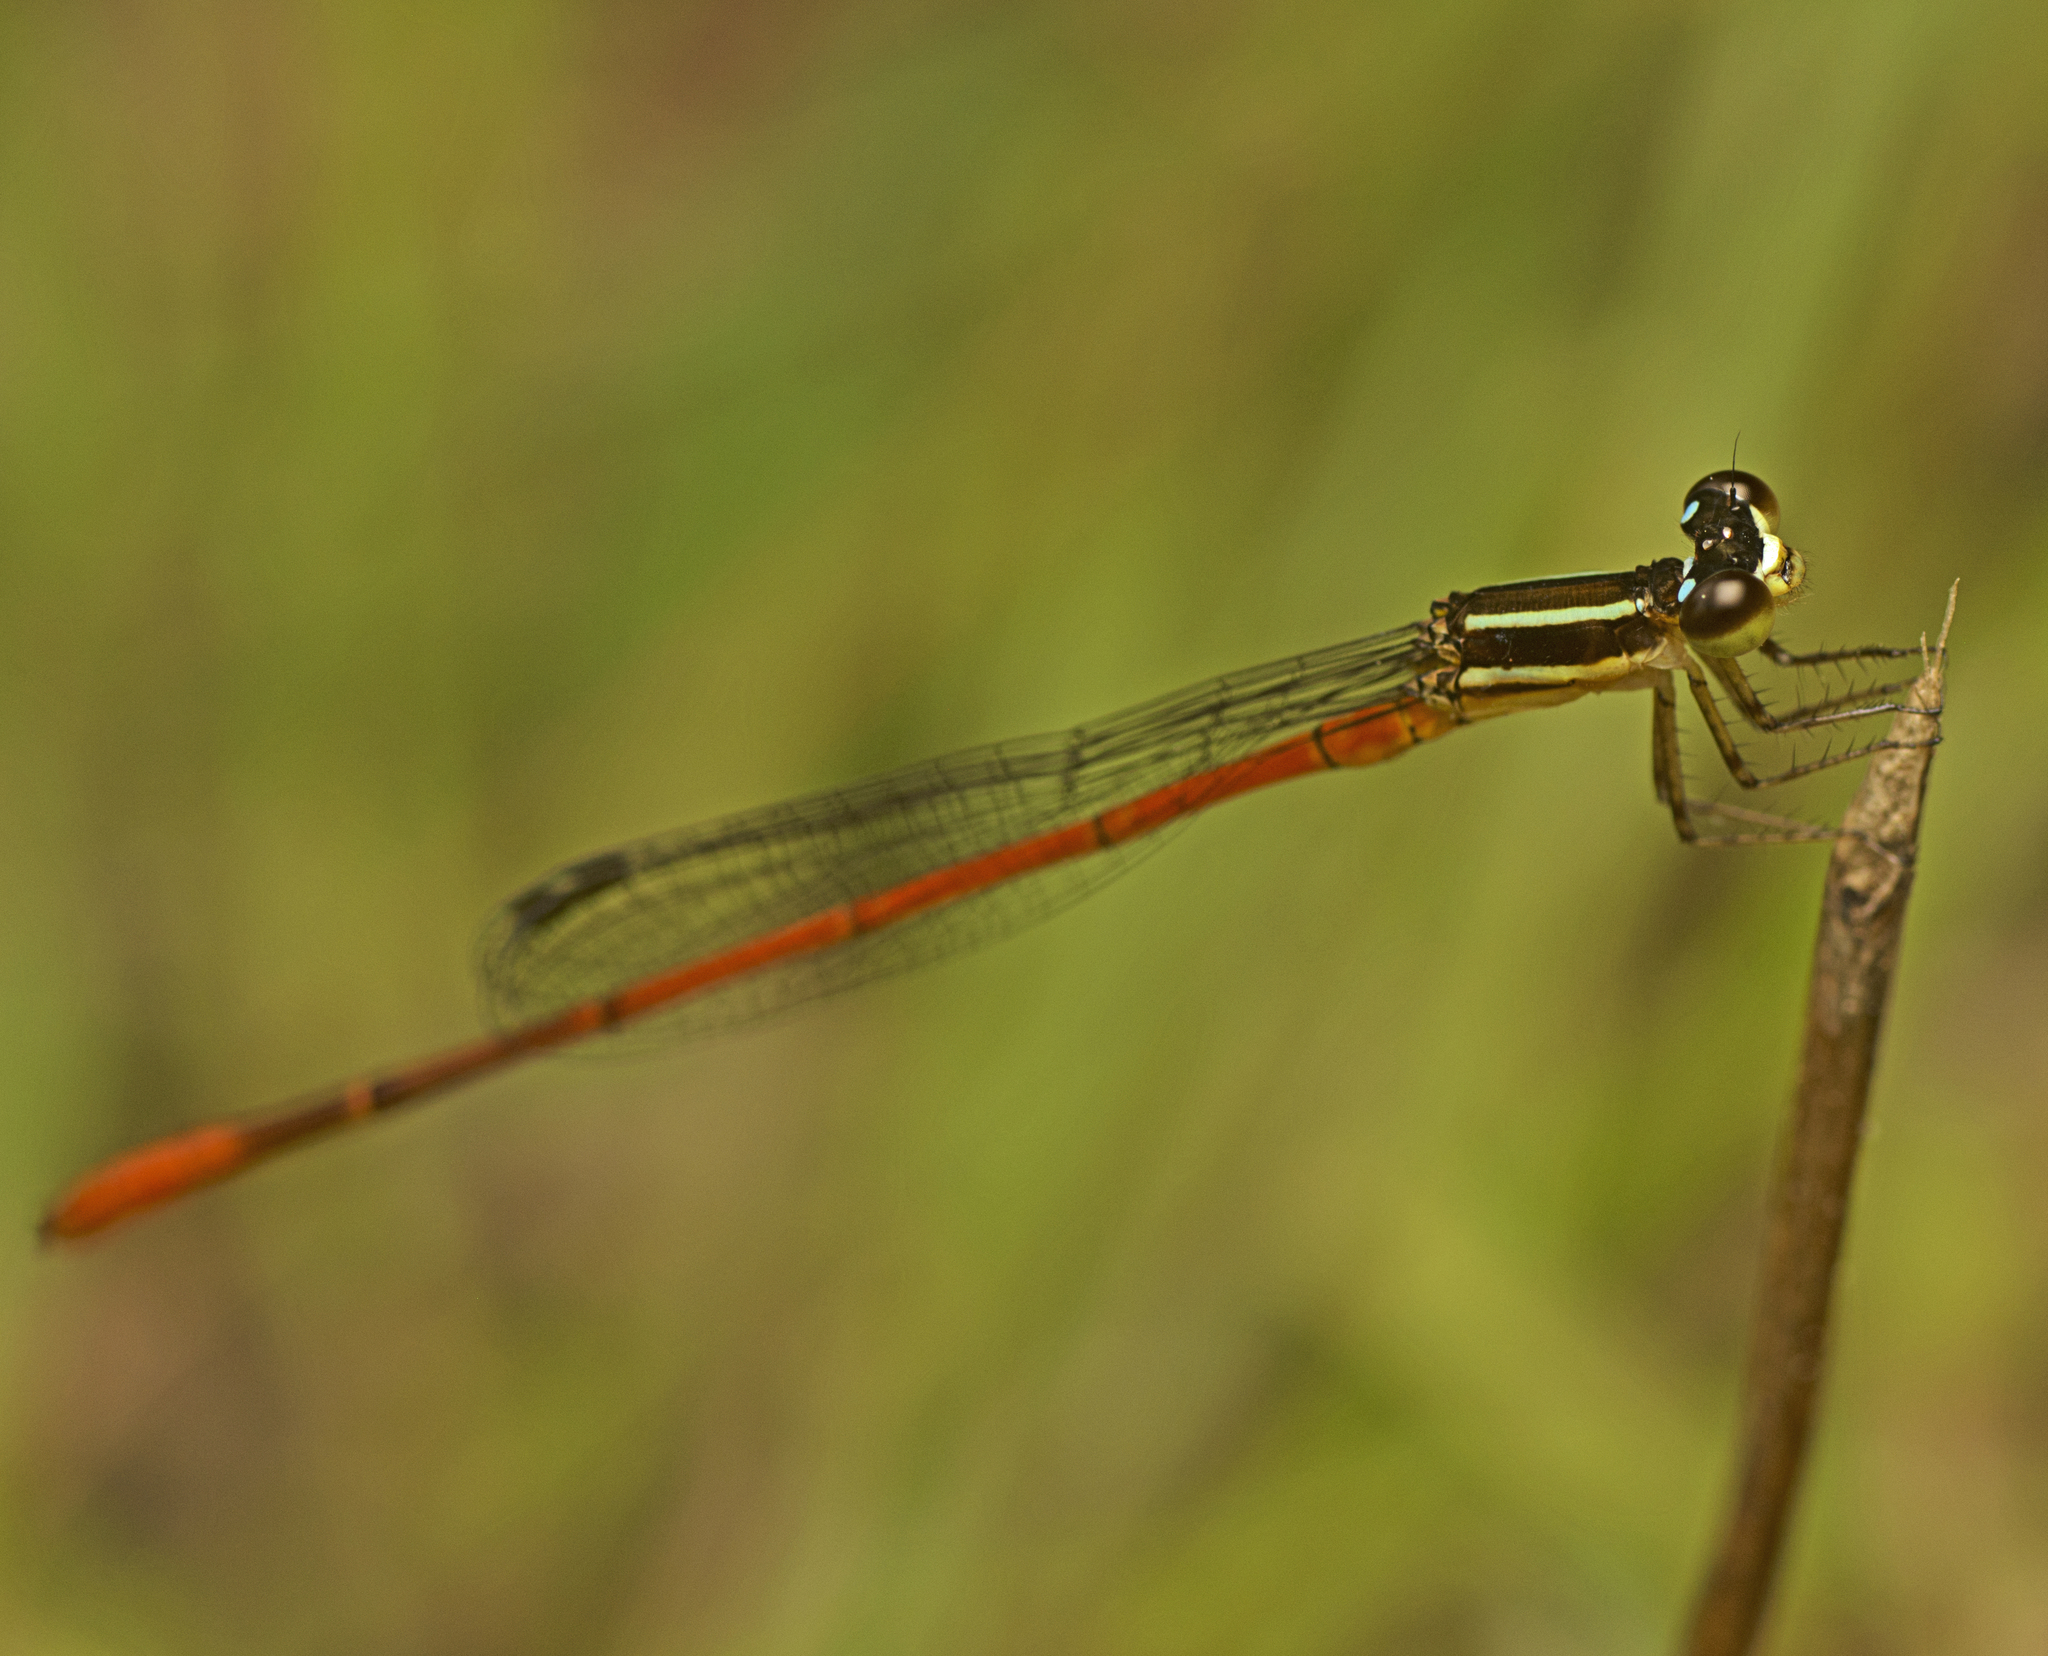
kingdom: Animalia
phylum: Arthropoda
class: Insecta
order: Odonata
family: Coenagrionidae
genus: Argiocnemis
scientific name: Argiocnemis rubescens
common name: Red-tipped shadefly
